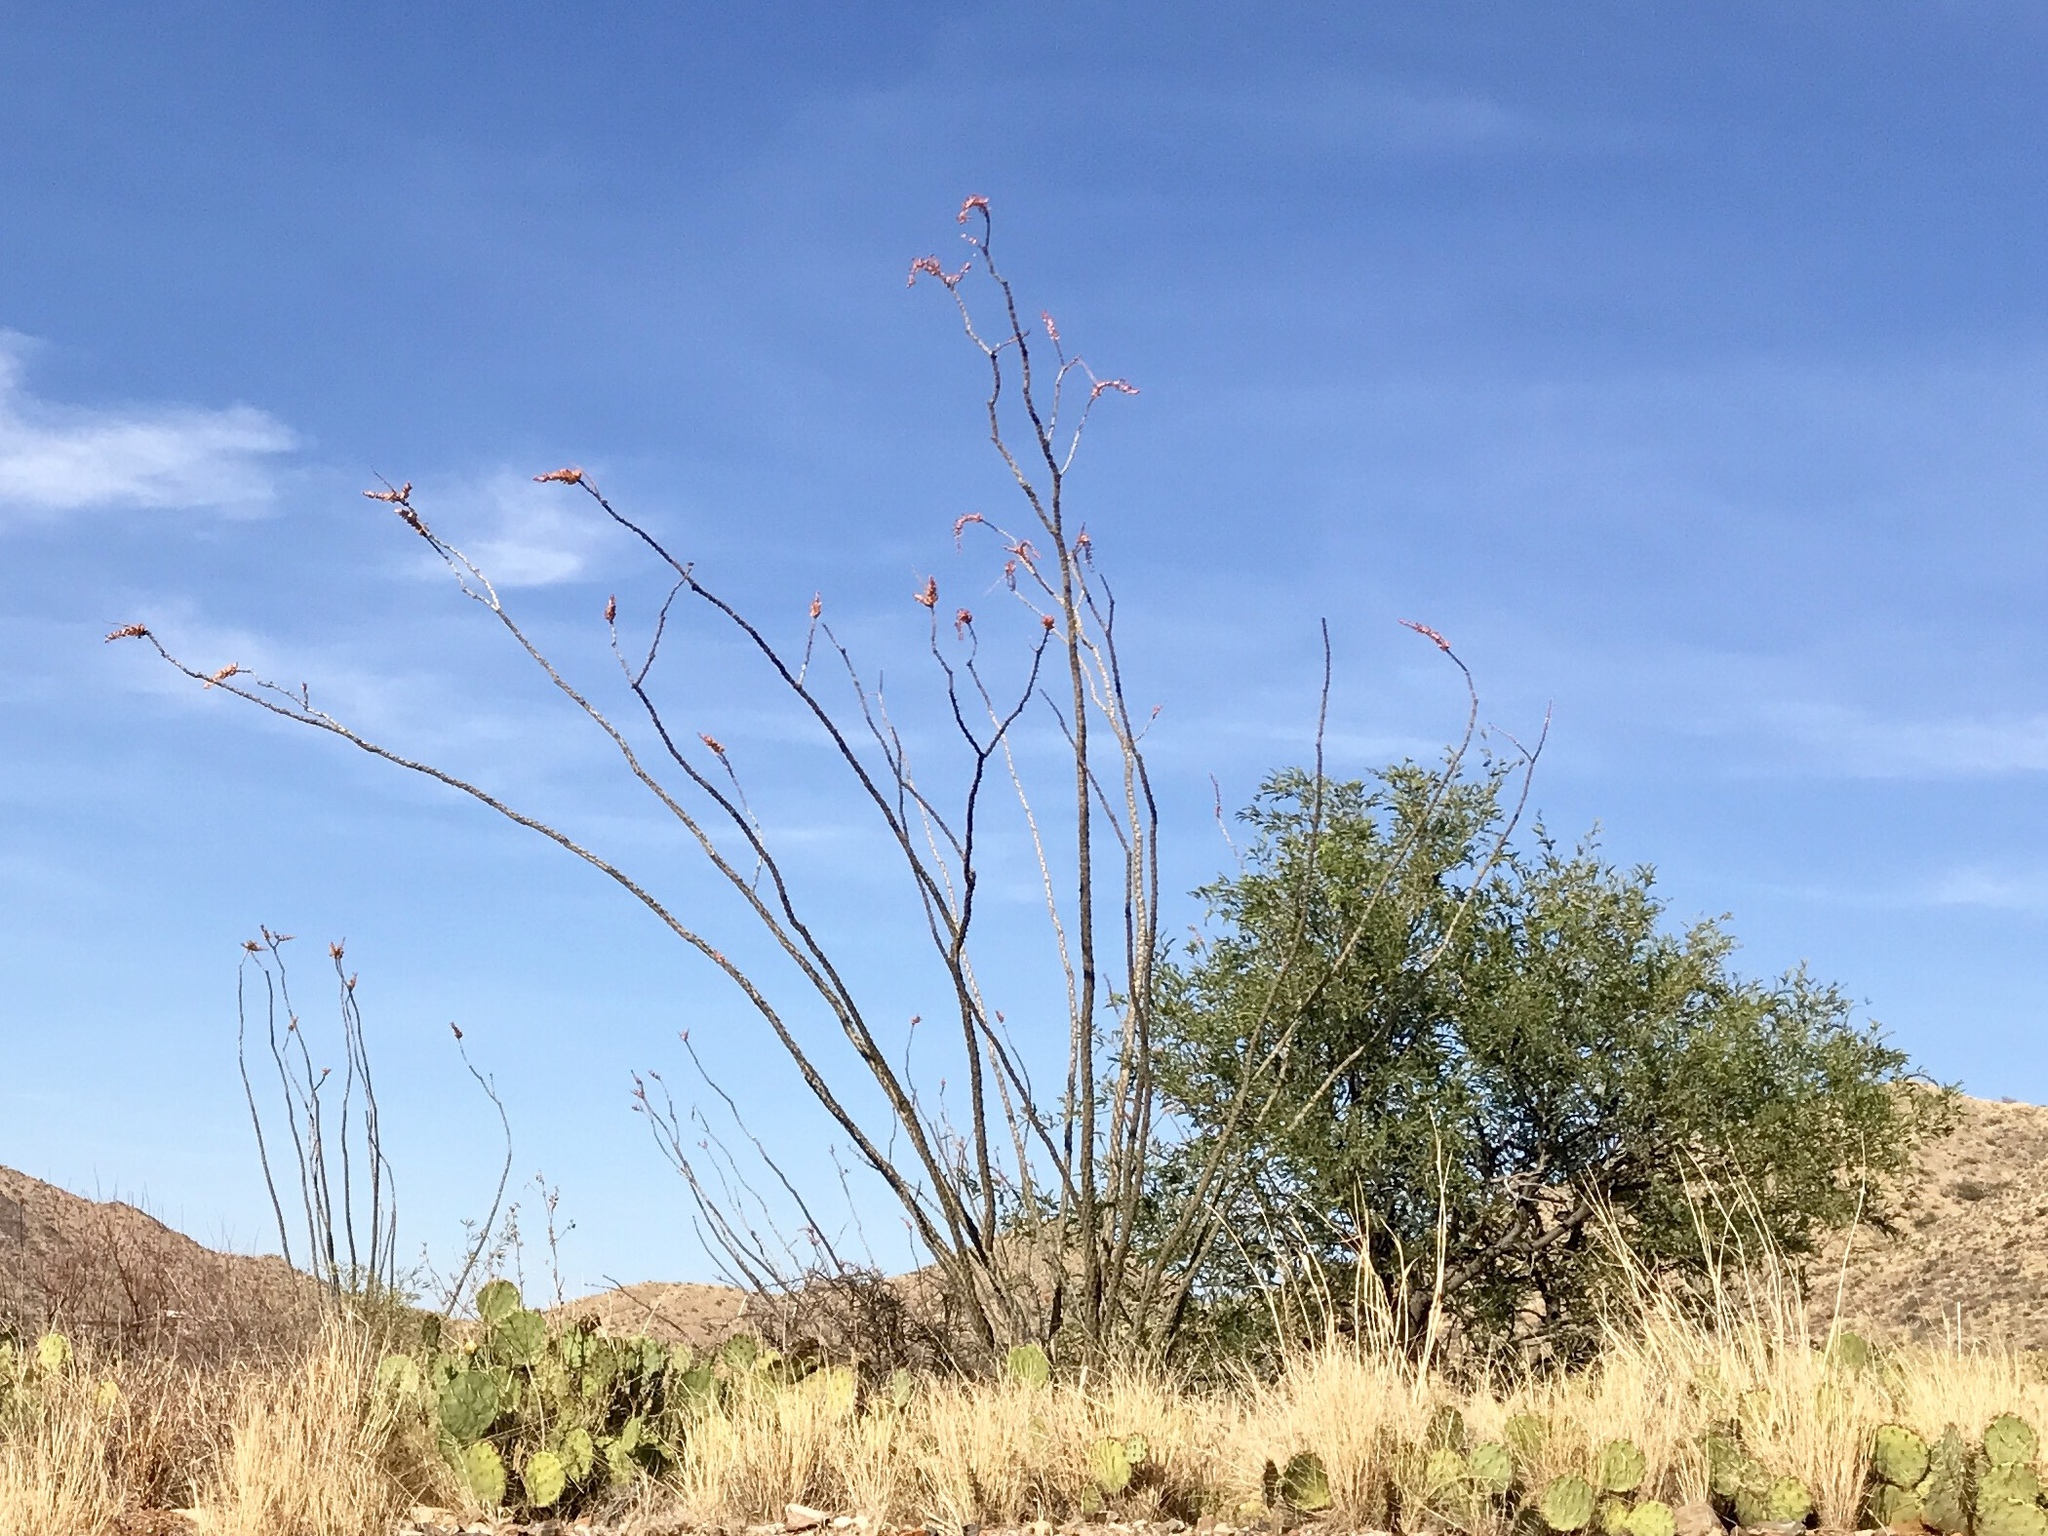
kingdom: Plantae
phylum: Tracheophyta
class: Magnoliopsida
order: Ericales
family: Fouquieriaceae
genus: Fouquieria
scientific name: Fouquieria splendens
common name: Vine-cactus
